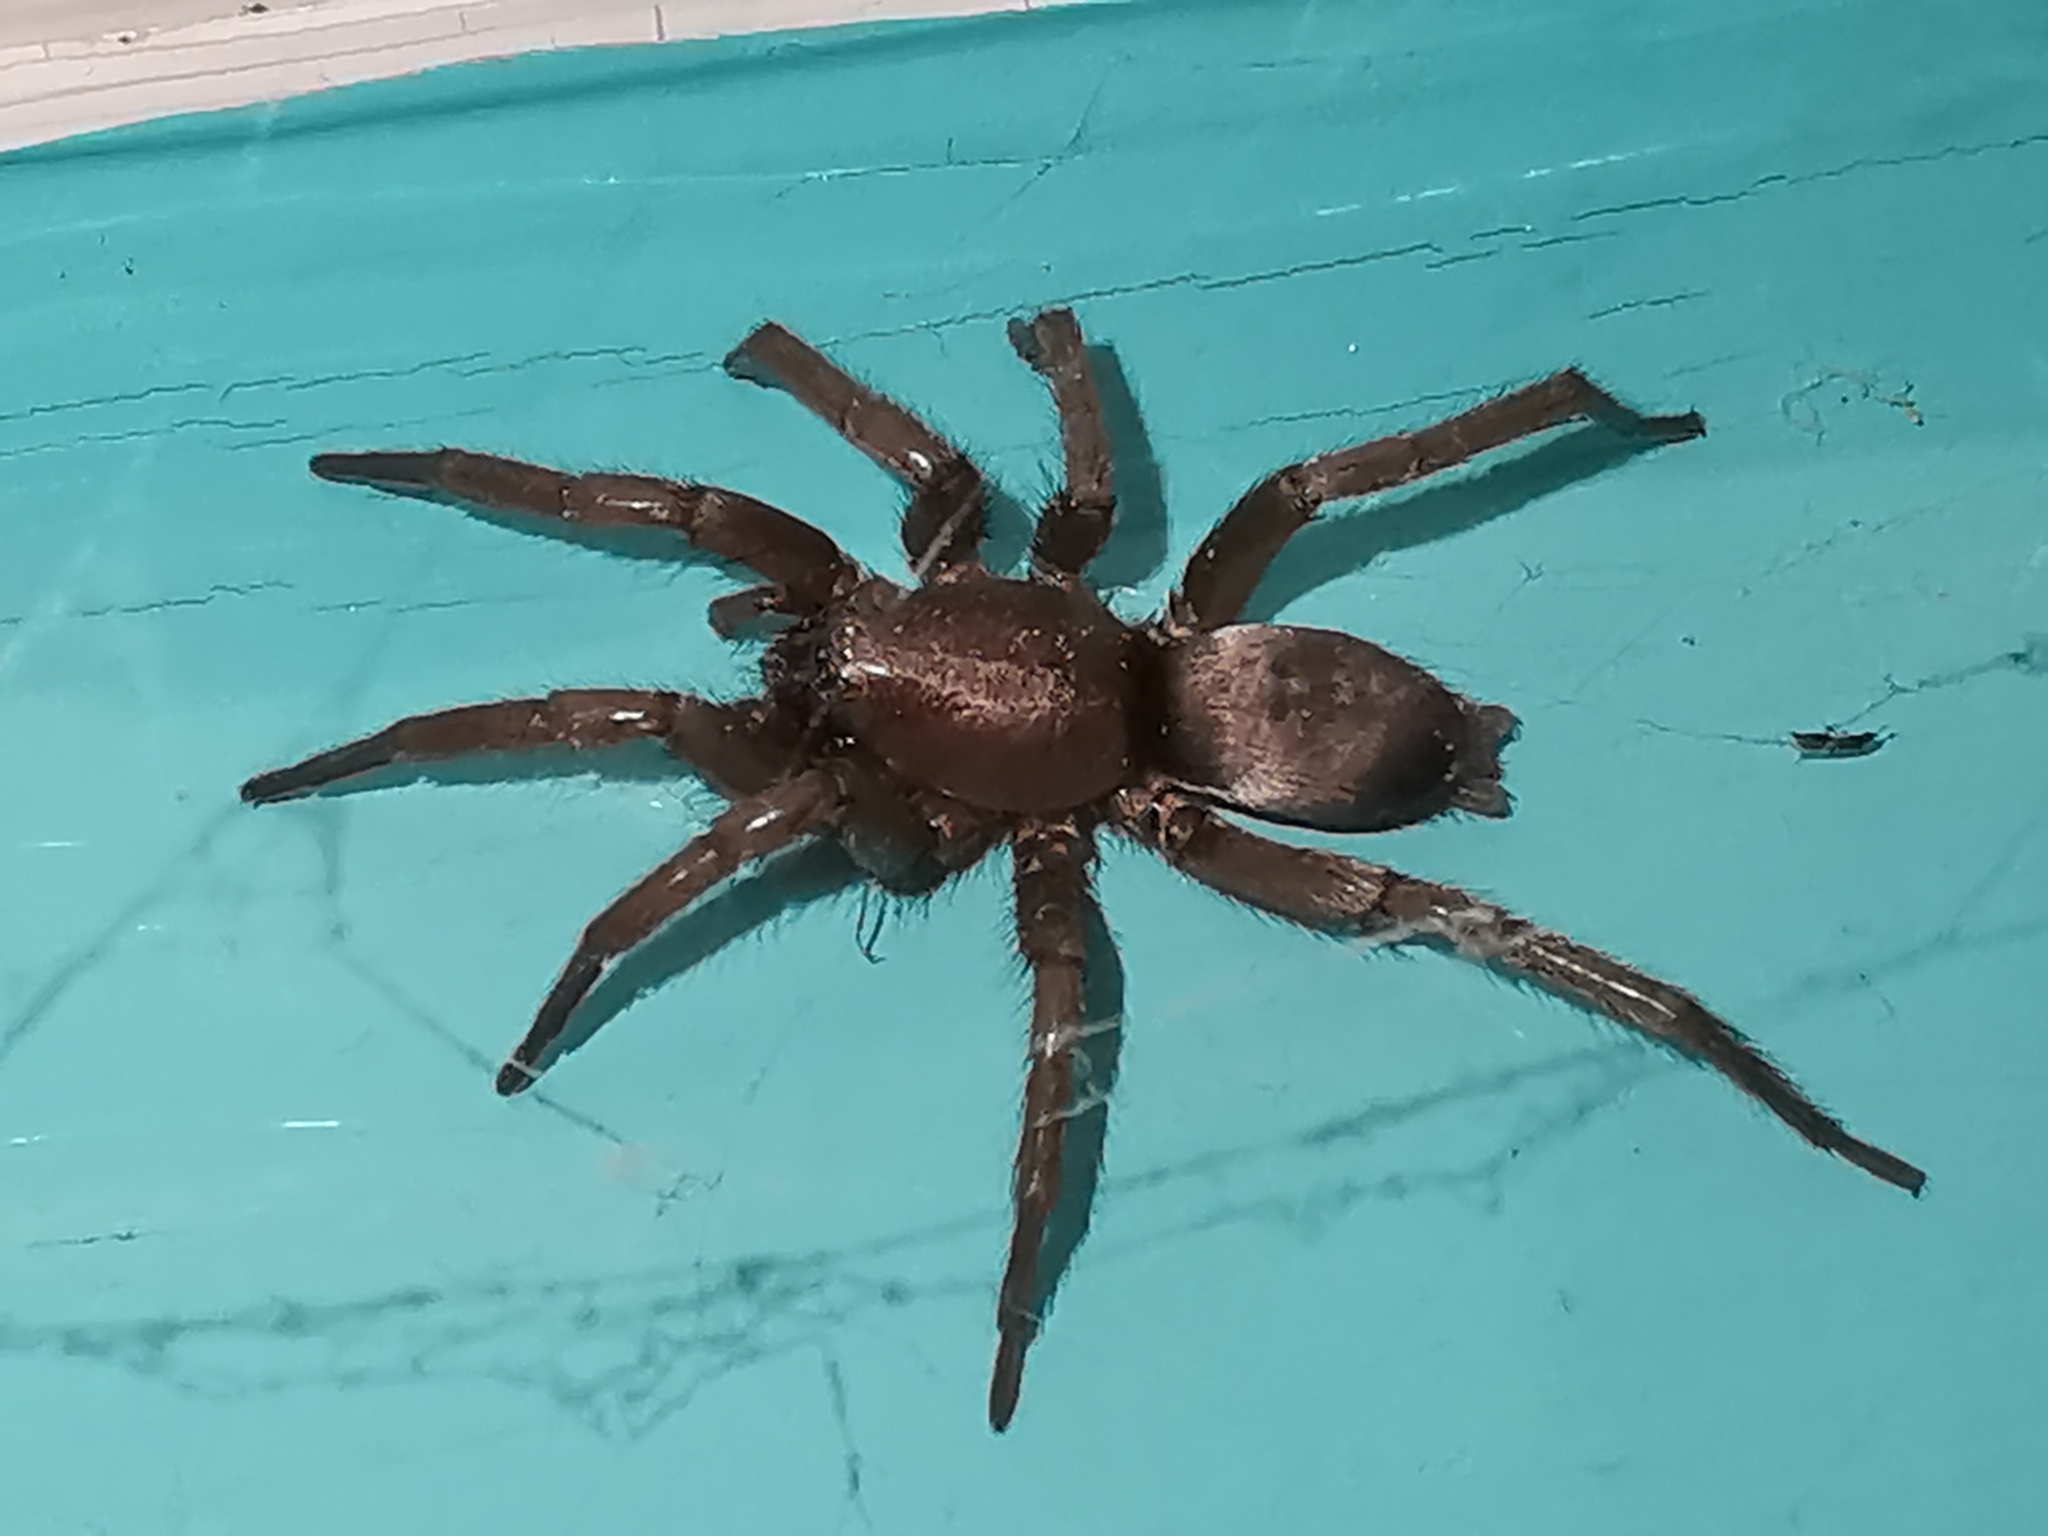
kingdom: Animalia
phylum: Arthropoda
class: Arachnida
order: Araneae
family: Gnaphosidae
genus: Scotophaeus
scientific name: Scotophaeus blackwalli
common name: Mouse spider
